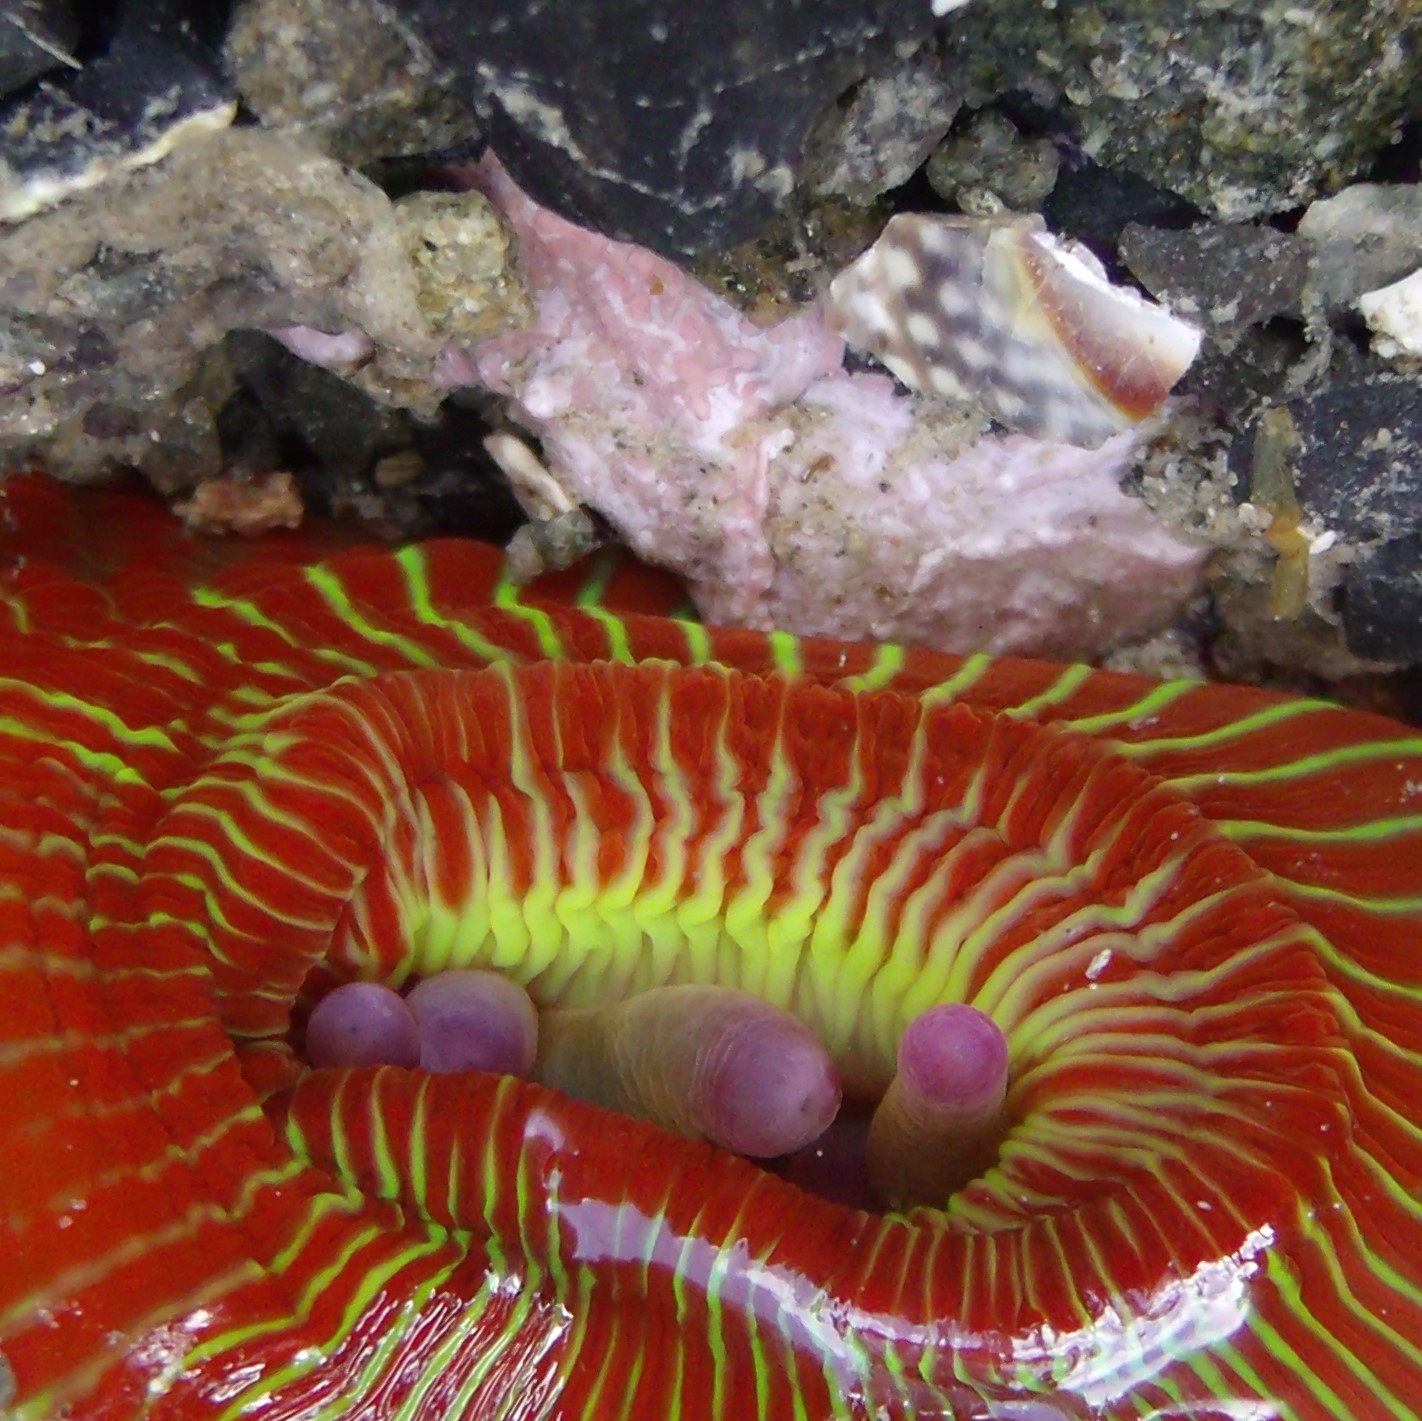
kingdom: Animalia
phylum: Cnidaria
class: Anthozoa
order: Actiniaria
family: Actiniidae
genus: Epiactis
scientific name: Epiactis thompsoni
